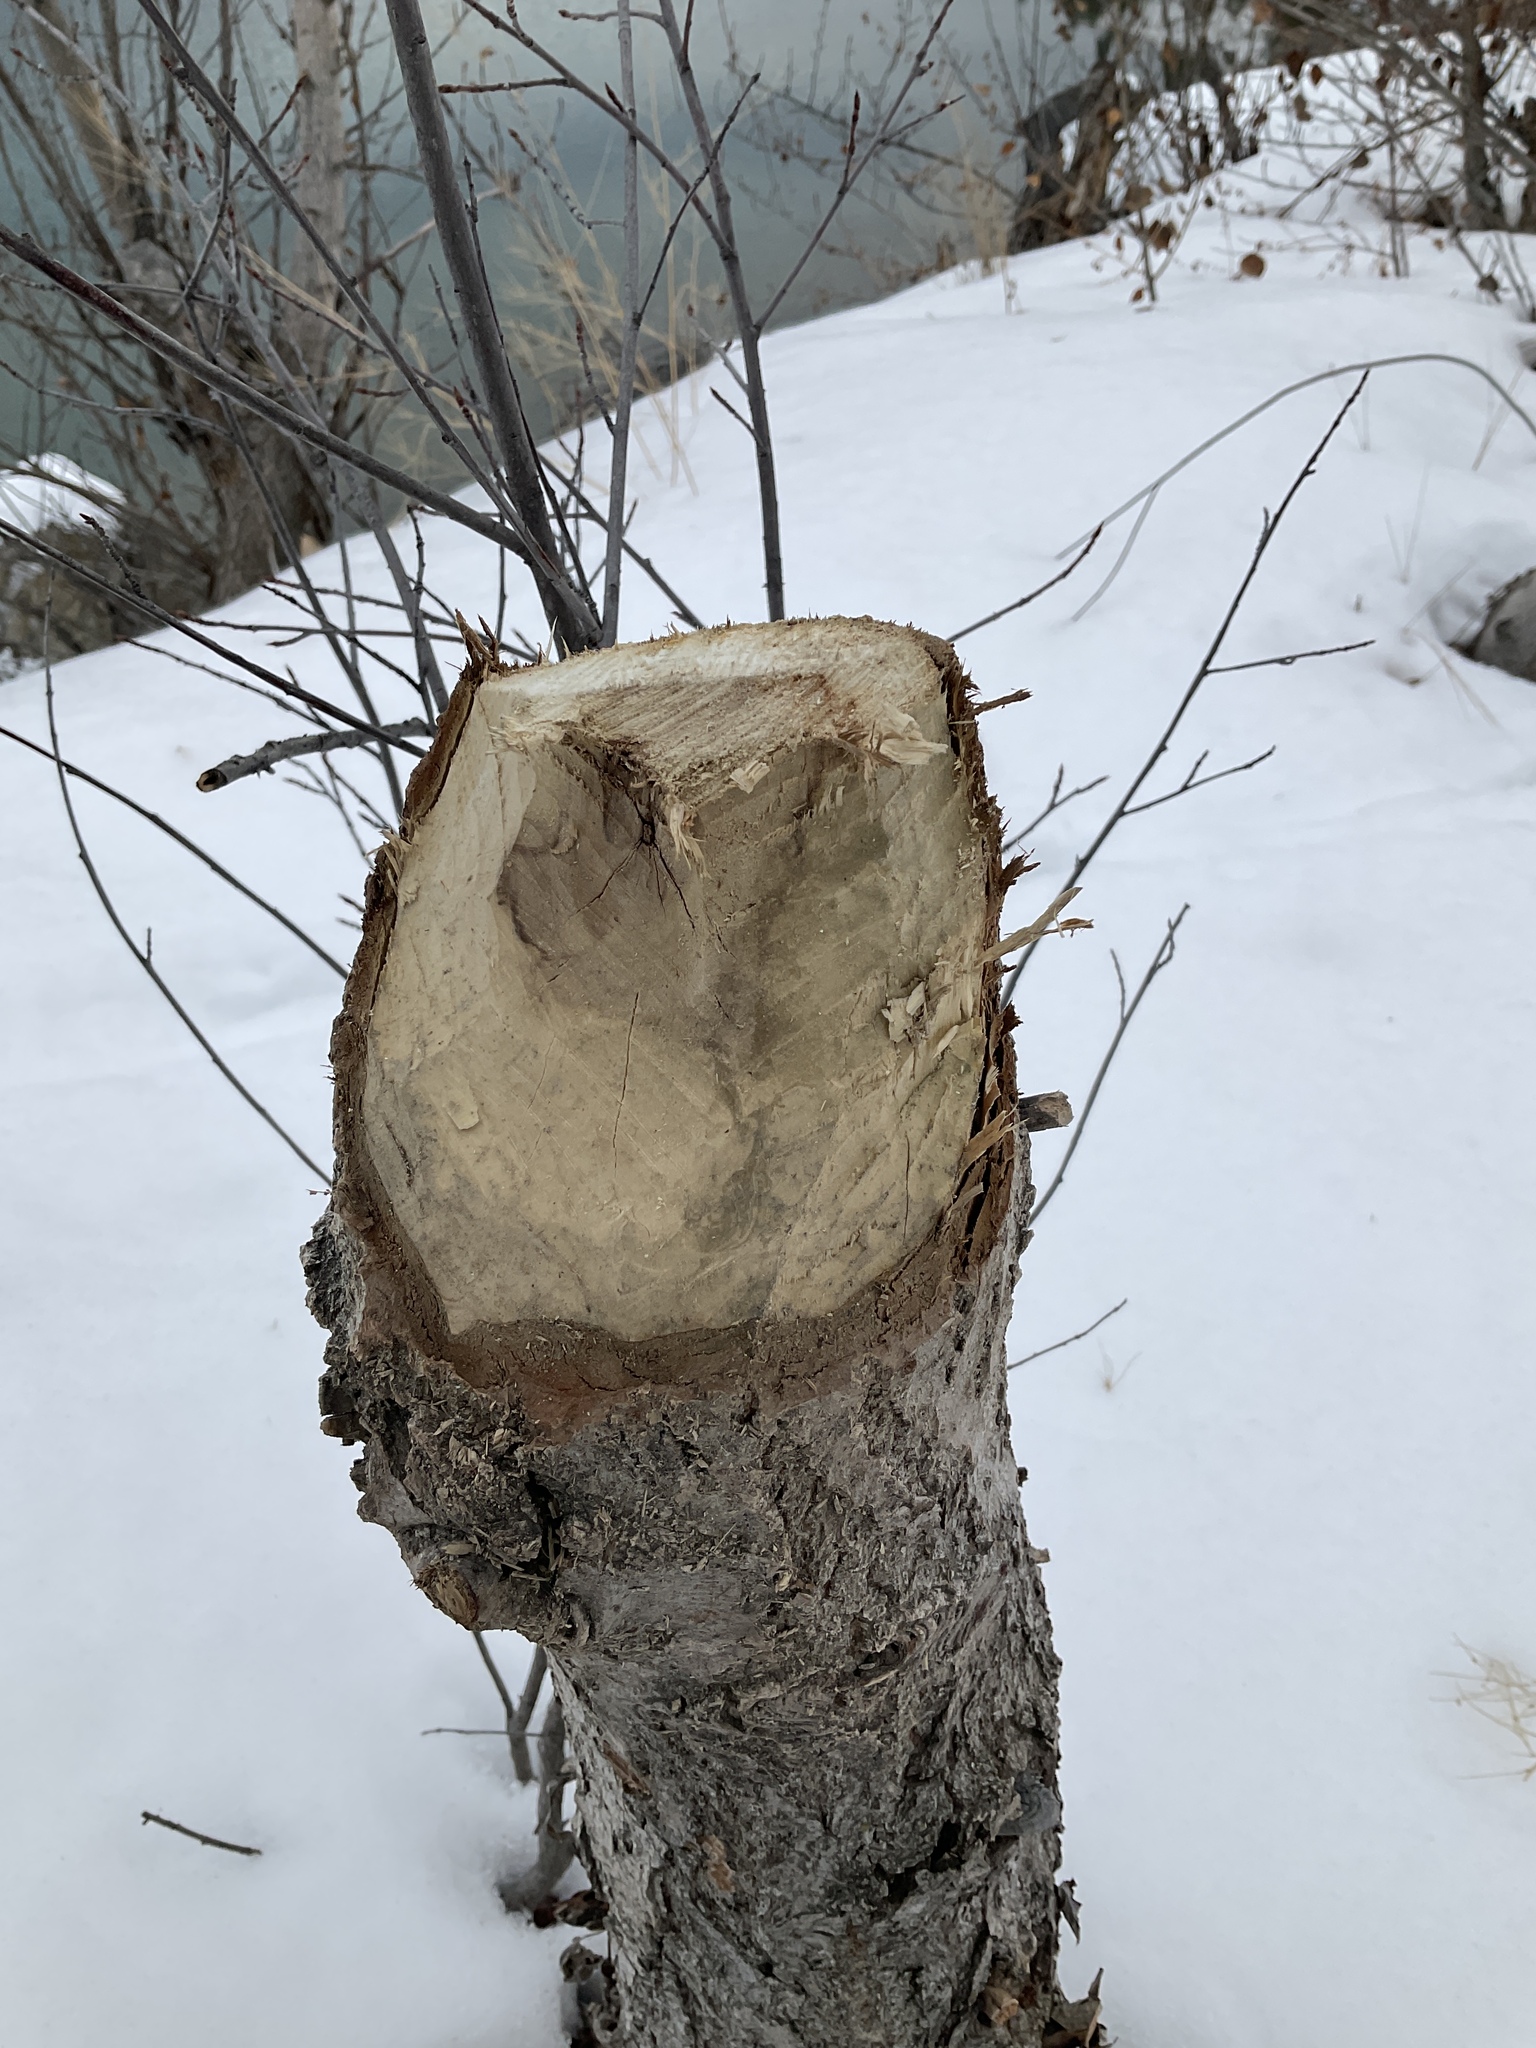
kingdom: Animalia
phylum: Chordata
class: Mammalia
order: Rodentia
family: Castoridae
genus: Castor
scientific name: Castor canadensis
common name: American beaver
